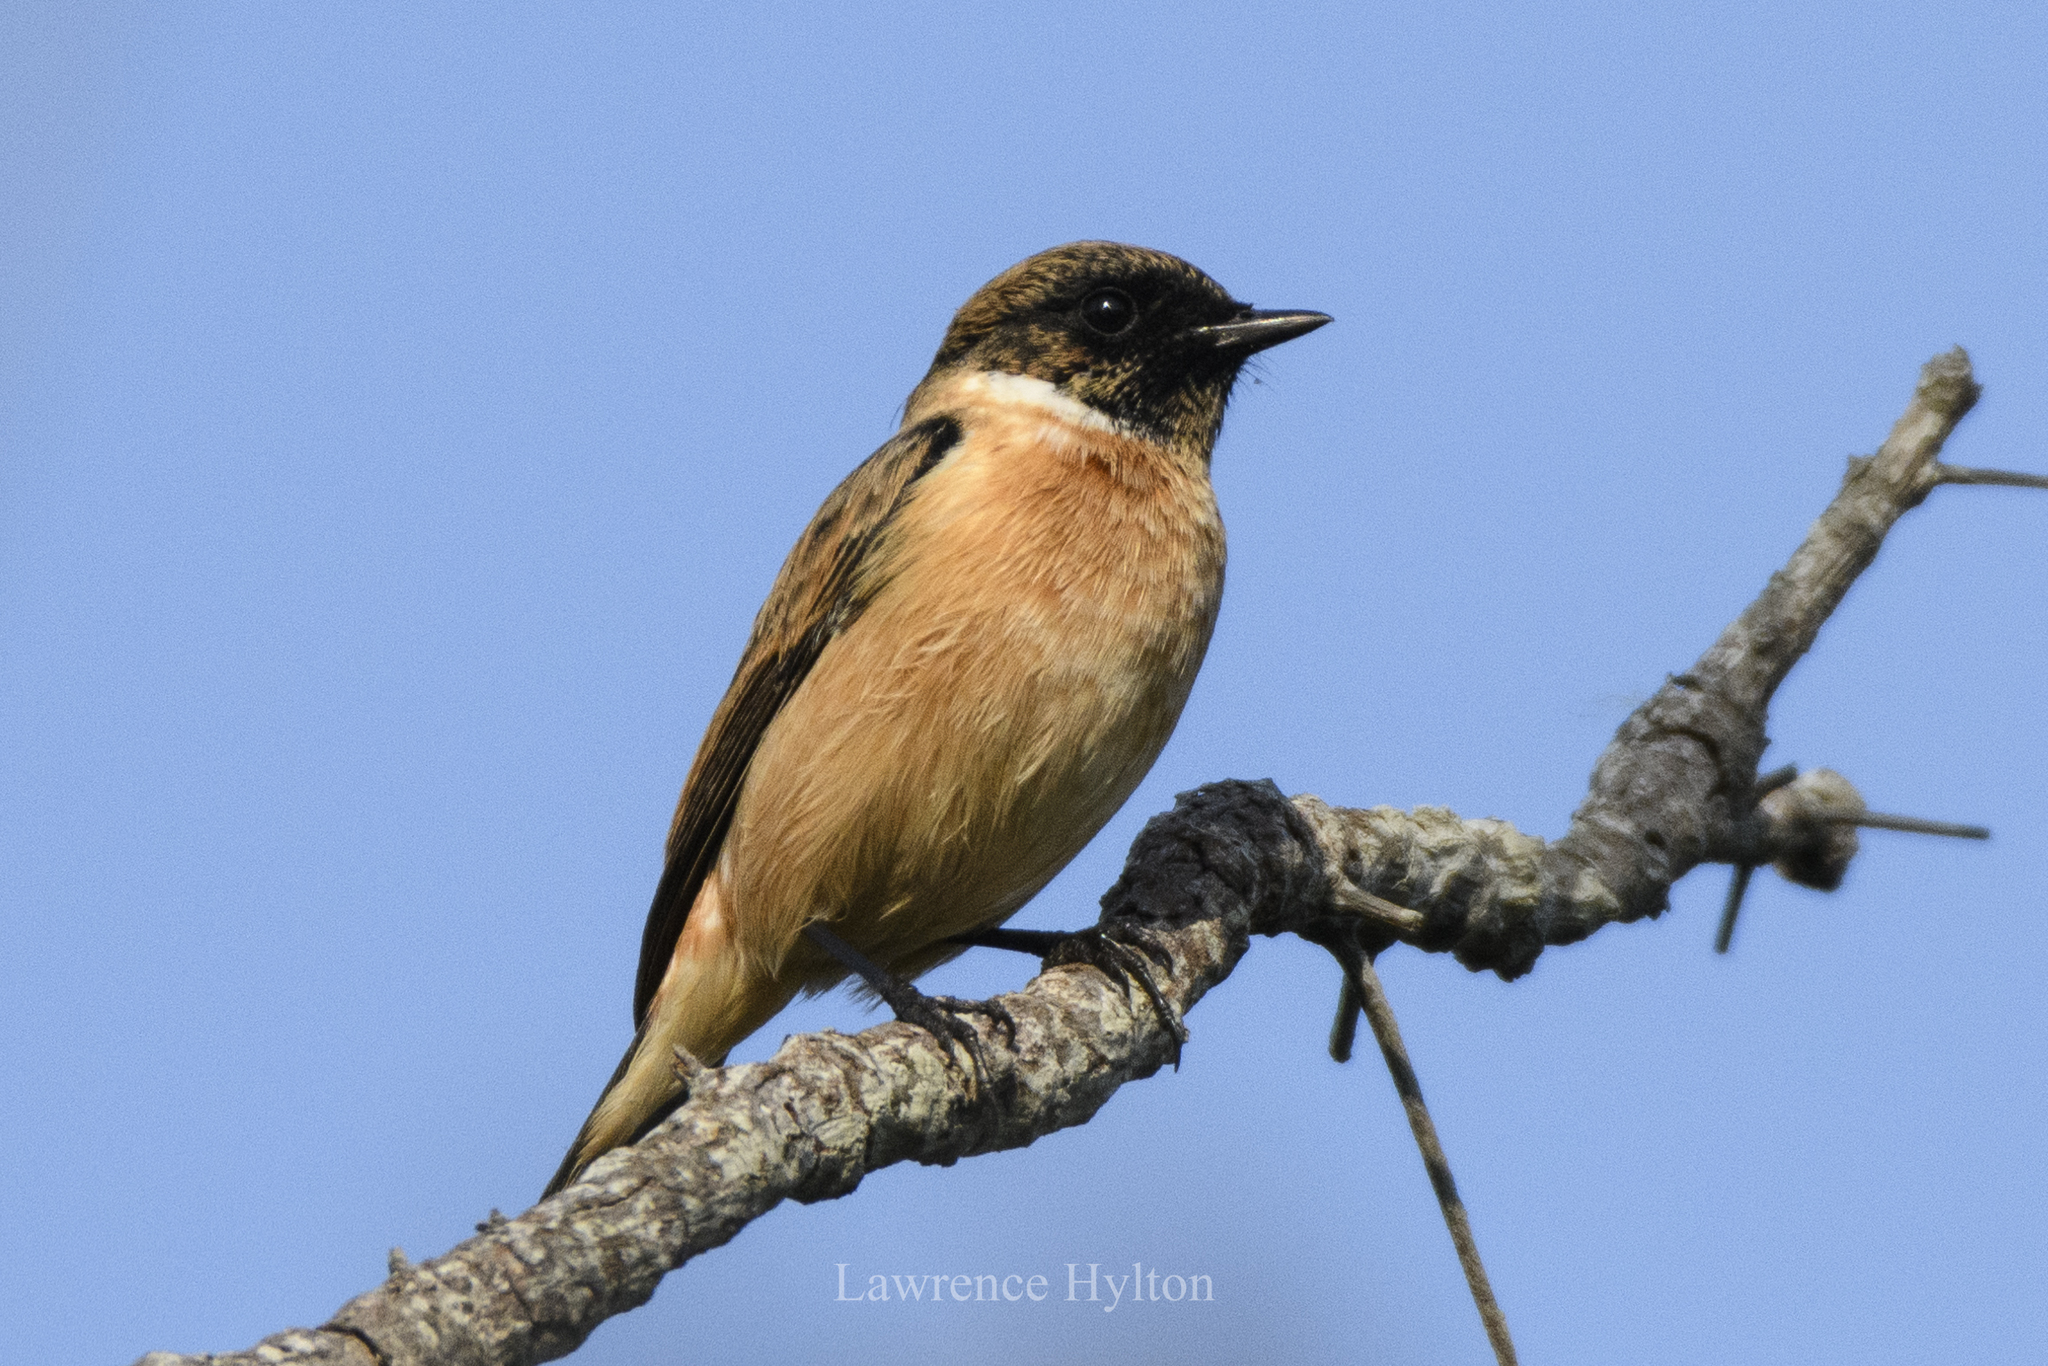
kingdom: Animalia
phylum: Chordata
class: Aves
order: Passeriformes
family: Muscicapidae
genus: Saxicola
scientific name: Saxicola stejnegeri
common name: Stejneger's stonechat
